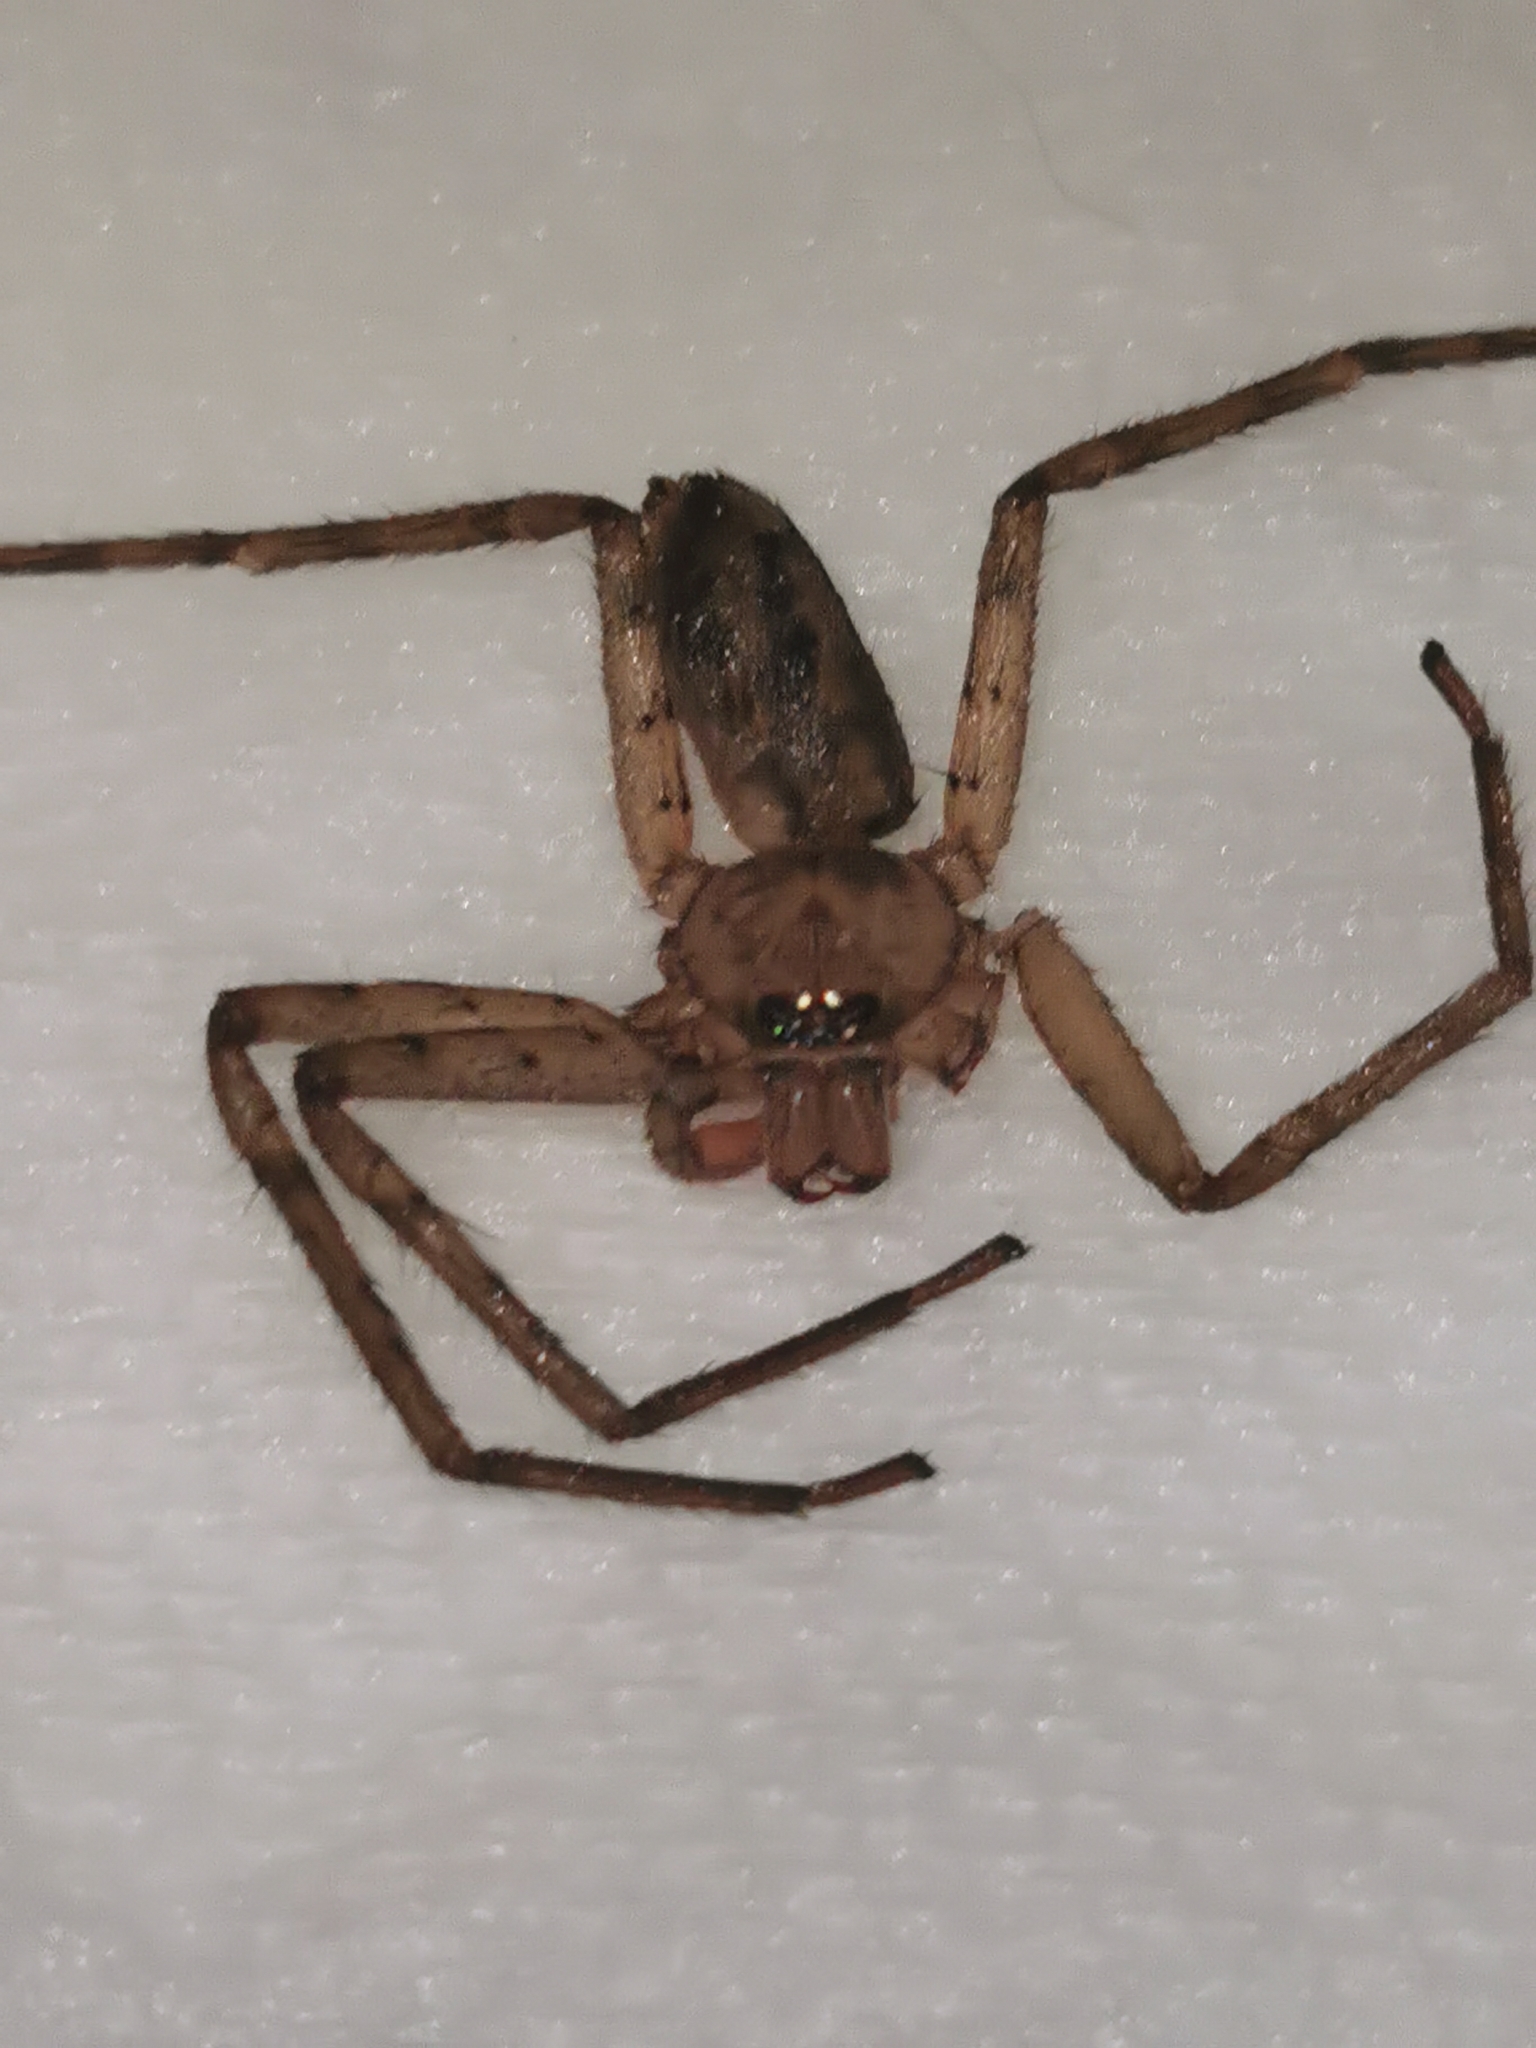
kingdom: Animalia
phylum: Arthropoda
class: Arachnida
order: Araneae
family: Sparassidae
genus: Heteropoda
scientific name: Heteropoda venatoria
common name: Huntsman spider
